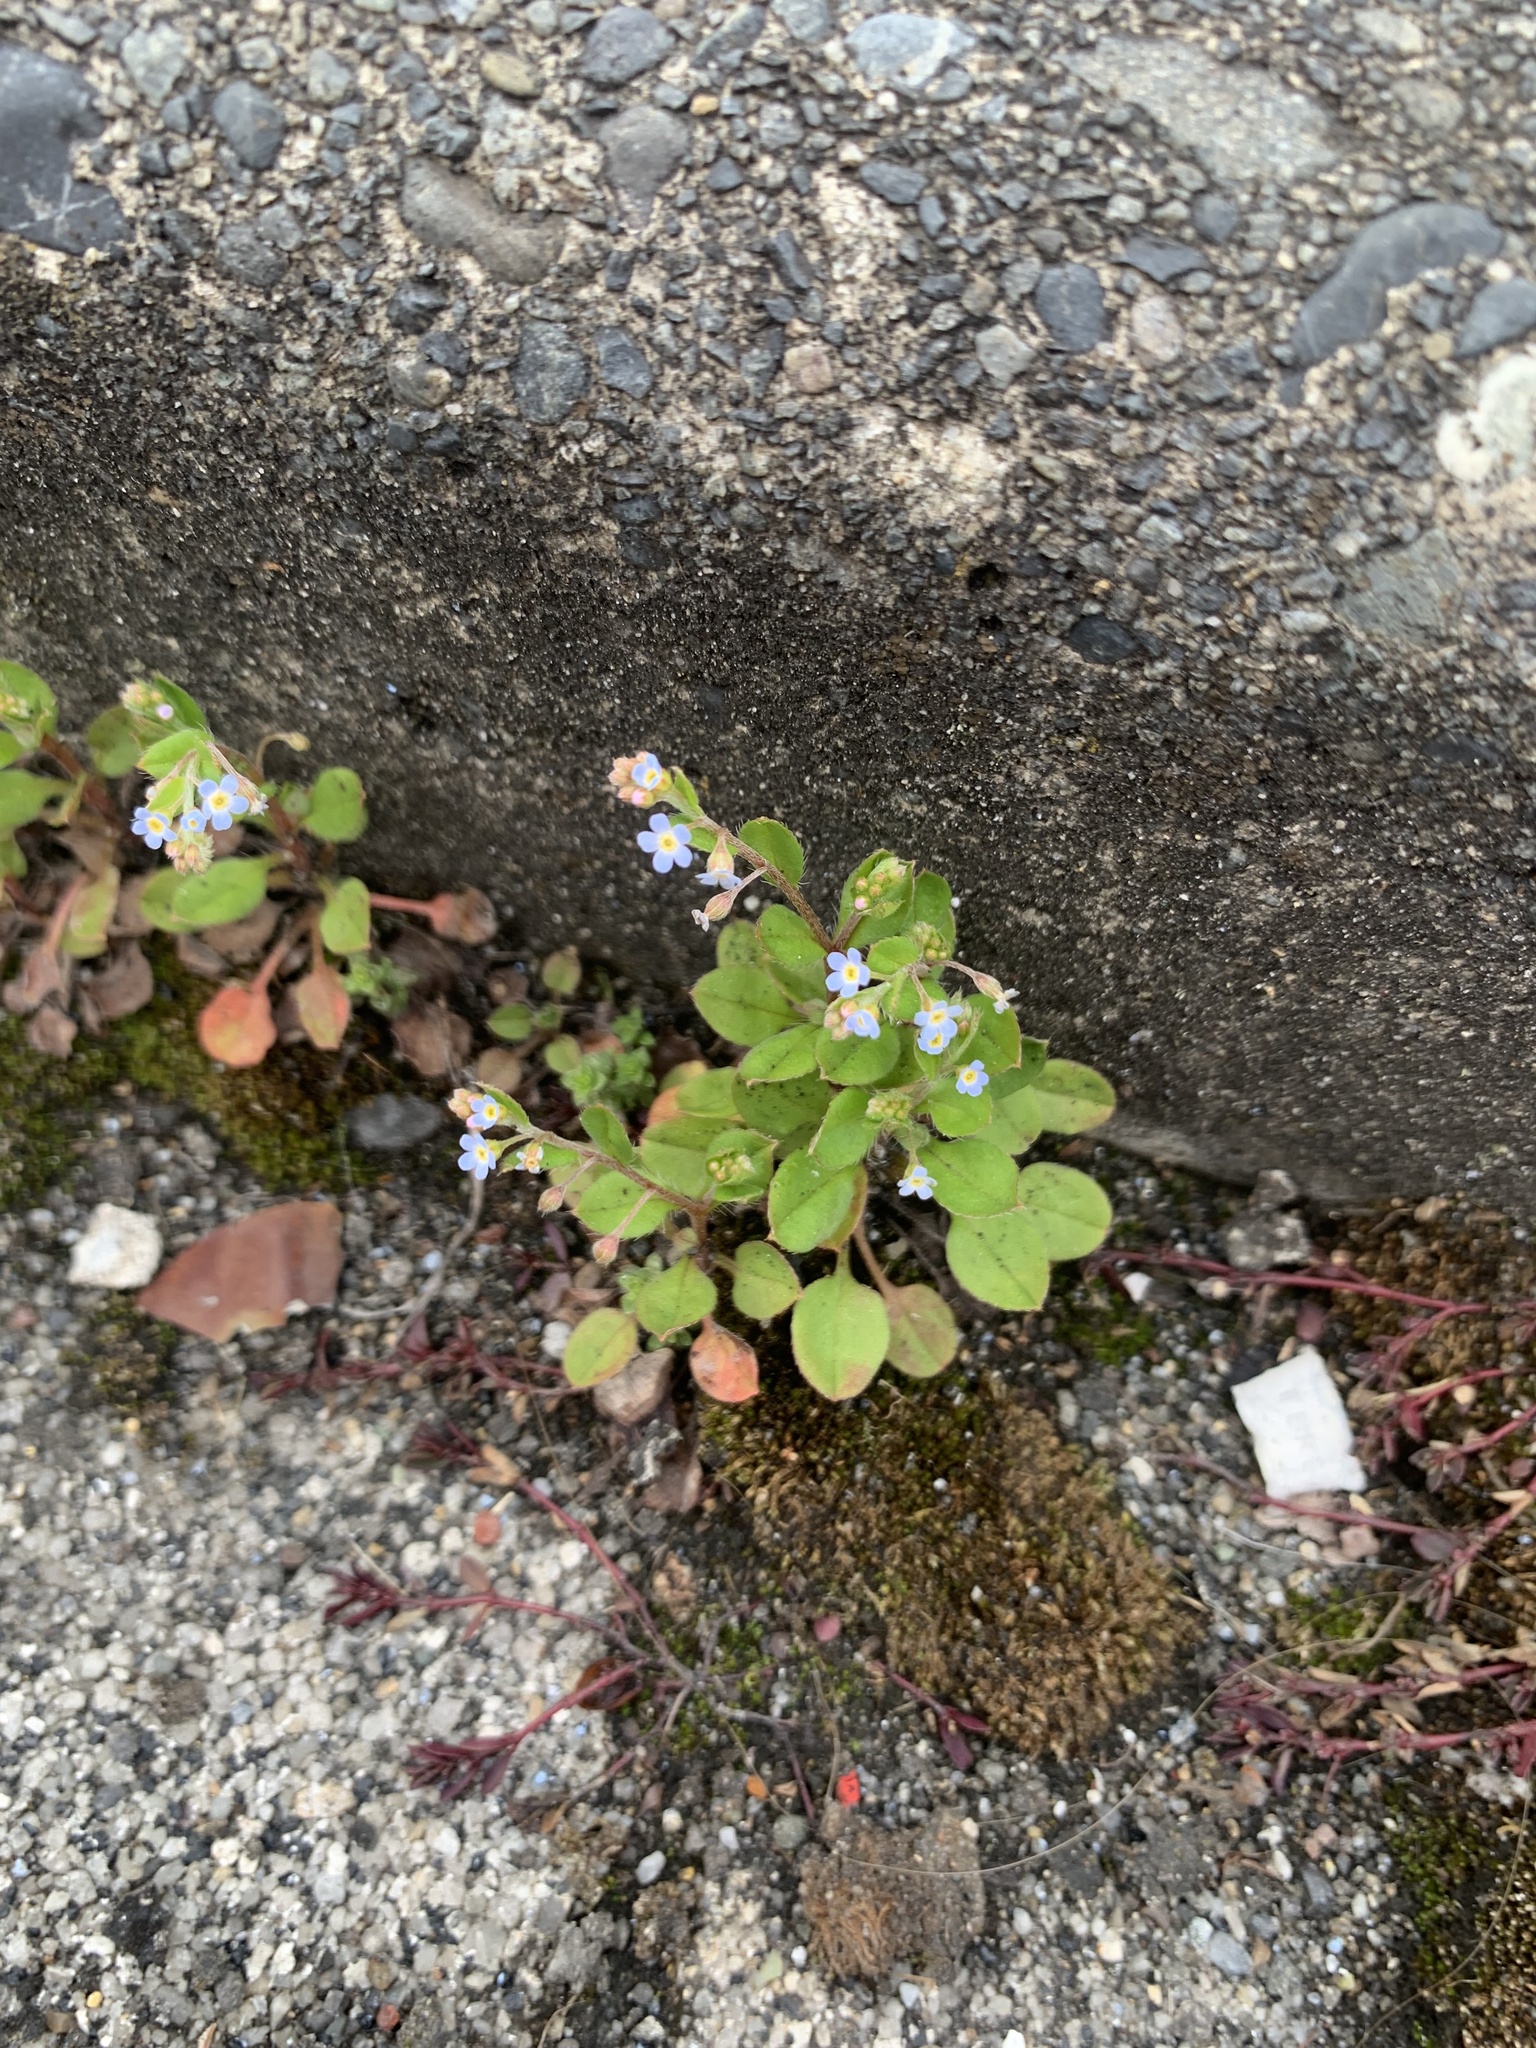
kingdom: Plantae
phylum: Tracheophyta
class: Magnoliopsida
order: Boraginales
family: Boraginaceae
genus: Trigonotis
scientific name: Trigonotis peduncularis
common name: Cucumber herb
